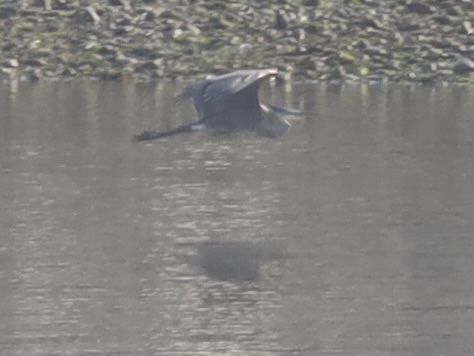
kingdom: Animalia
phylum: Chordata
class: Aves
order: Pelecaniformes
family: Ardeidae
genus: Ardea
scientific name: Ardea herodias
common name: Great blue heron
